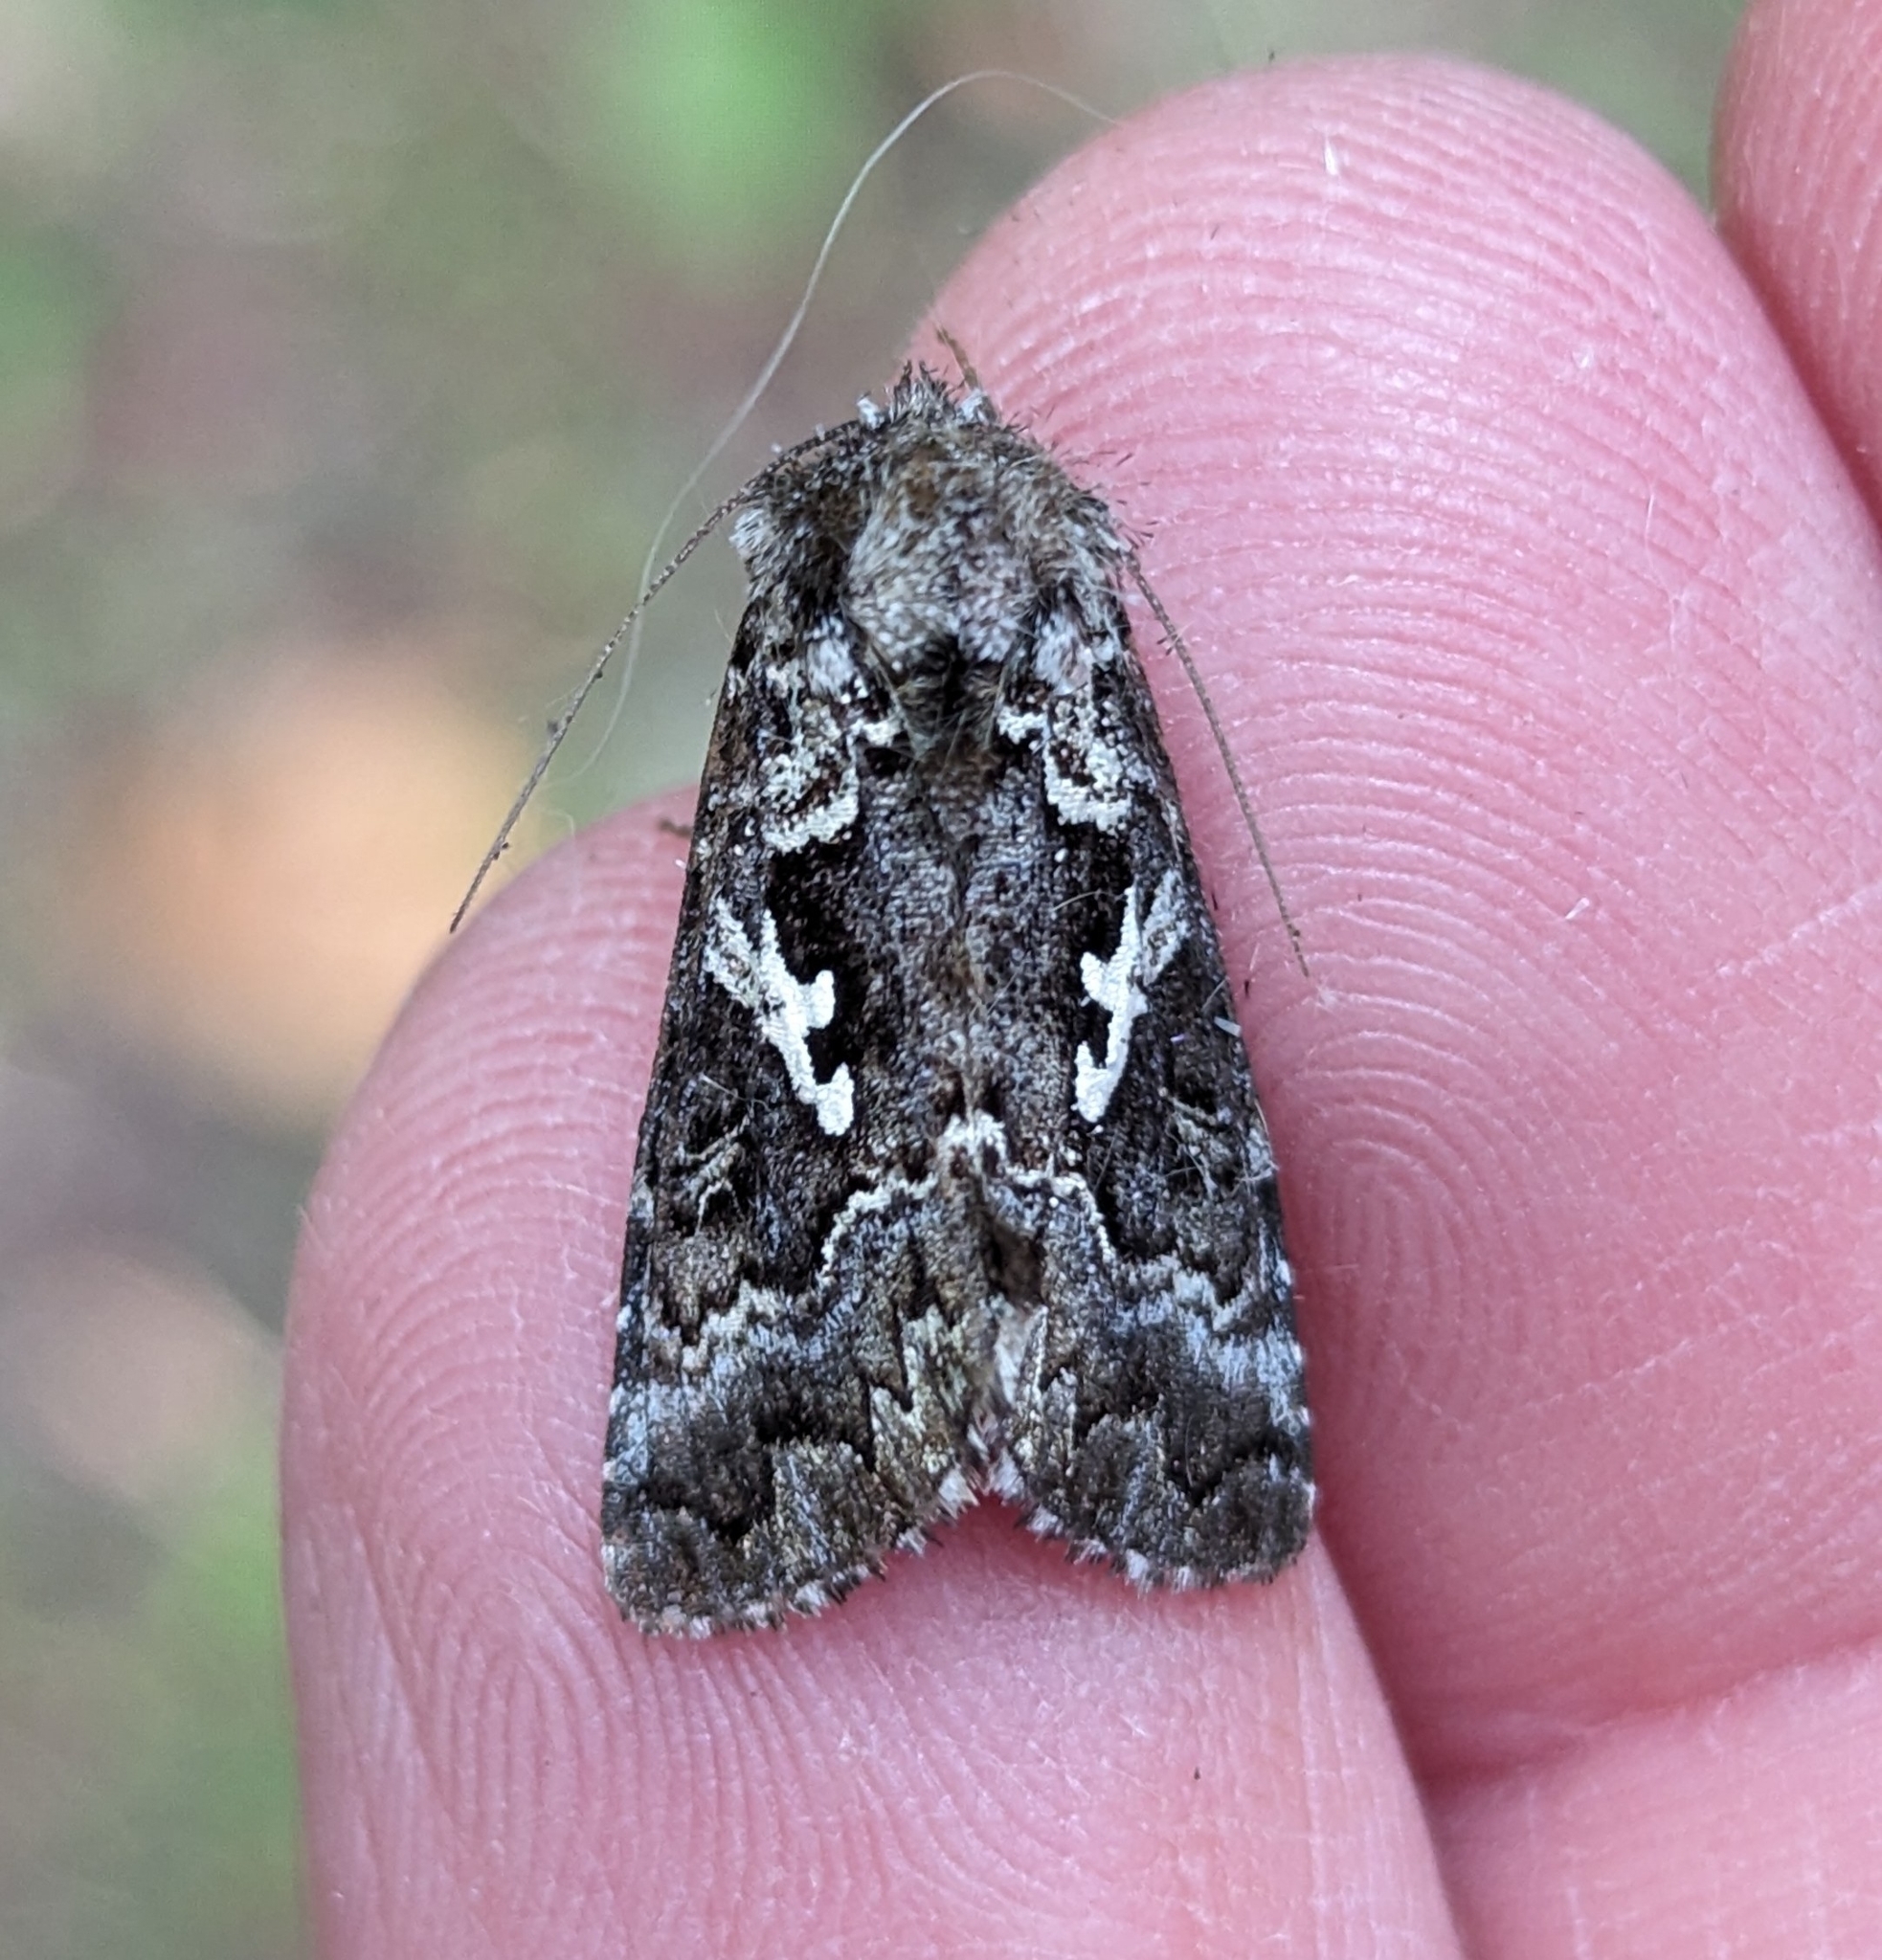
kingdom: Animalia
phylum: Arthropoda
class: Insecta
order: Lepidoptera
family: Noctuidae
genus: Syngrapha
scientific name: Syngrapha rectangula
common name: Angulated cutworm
